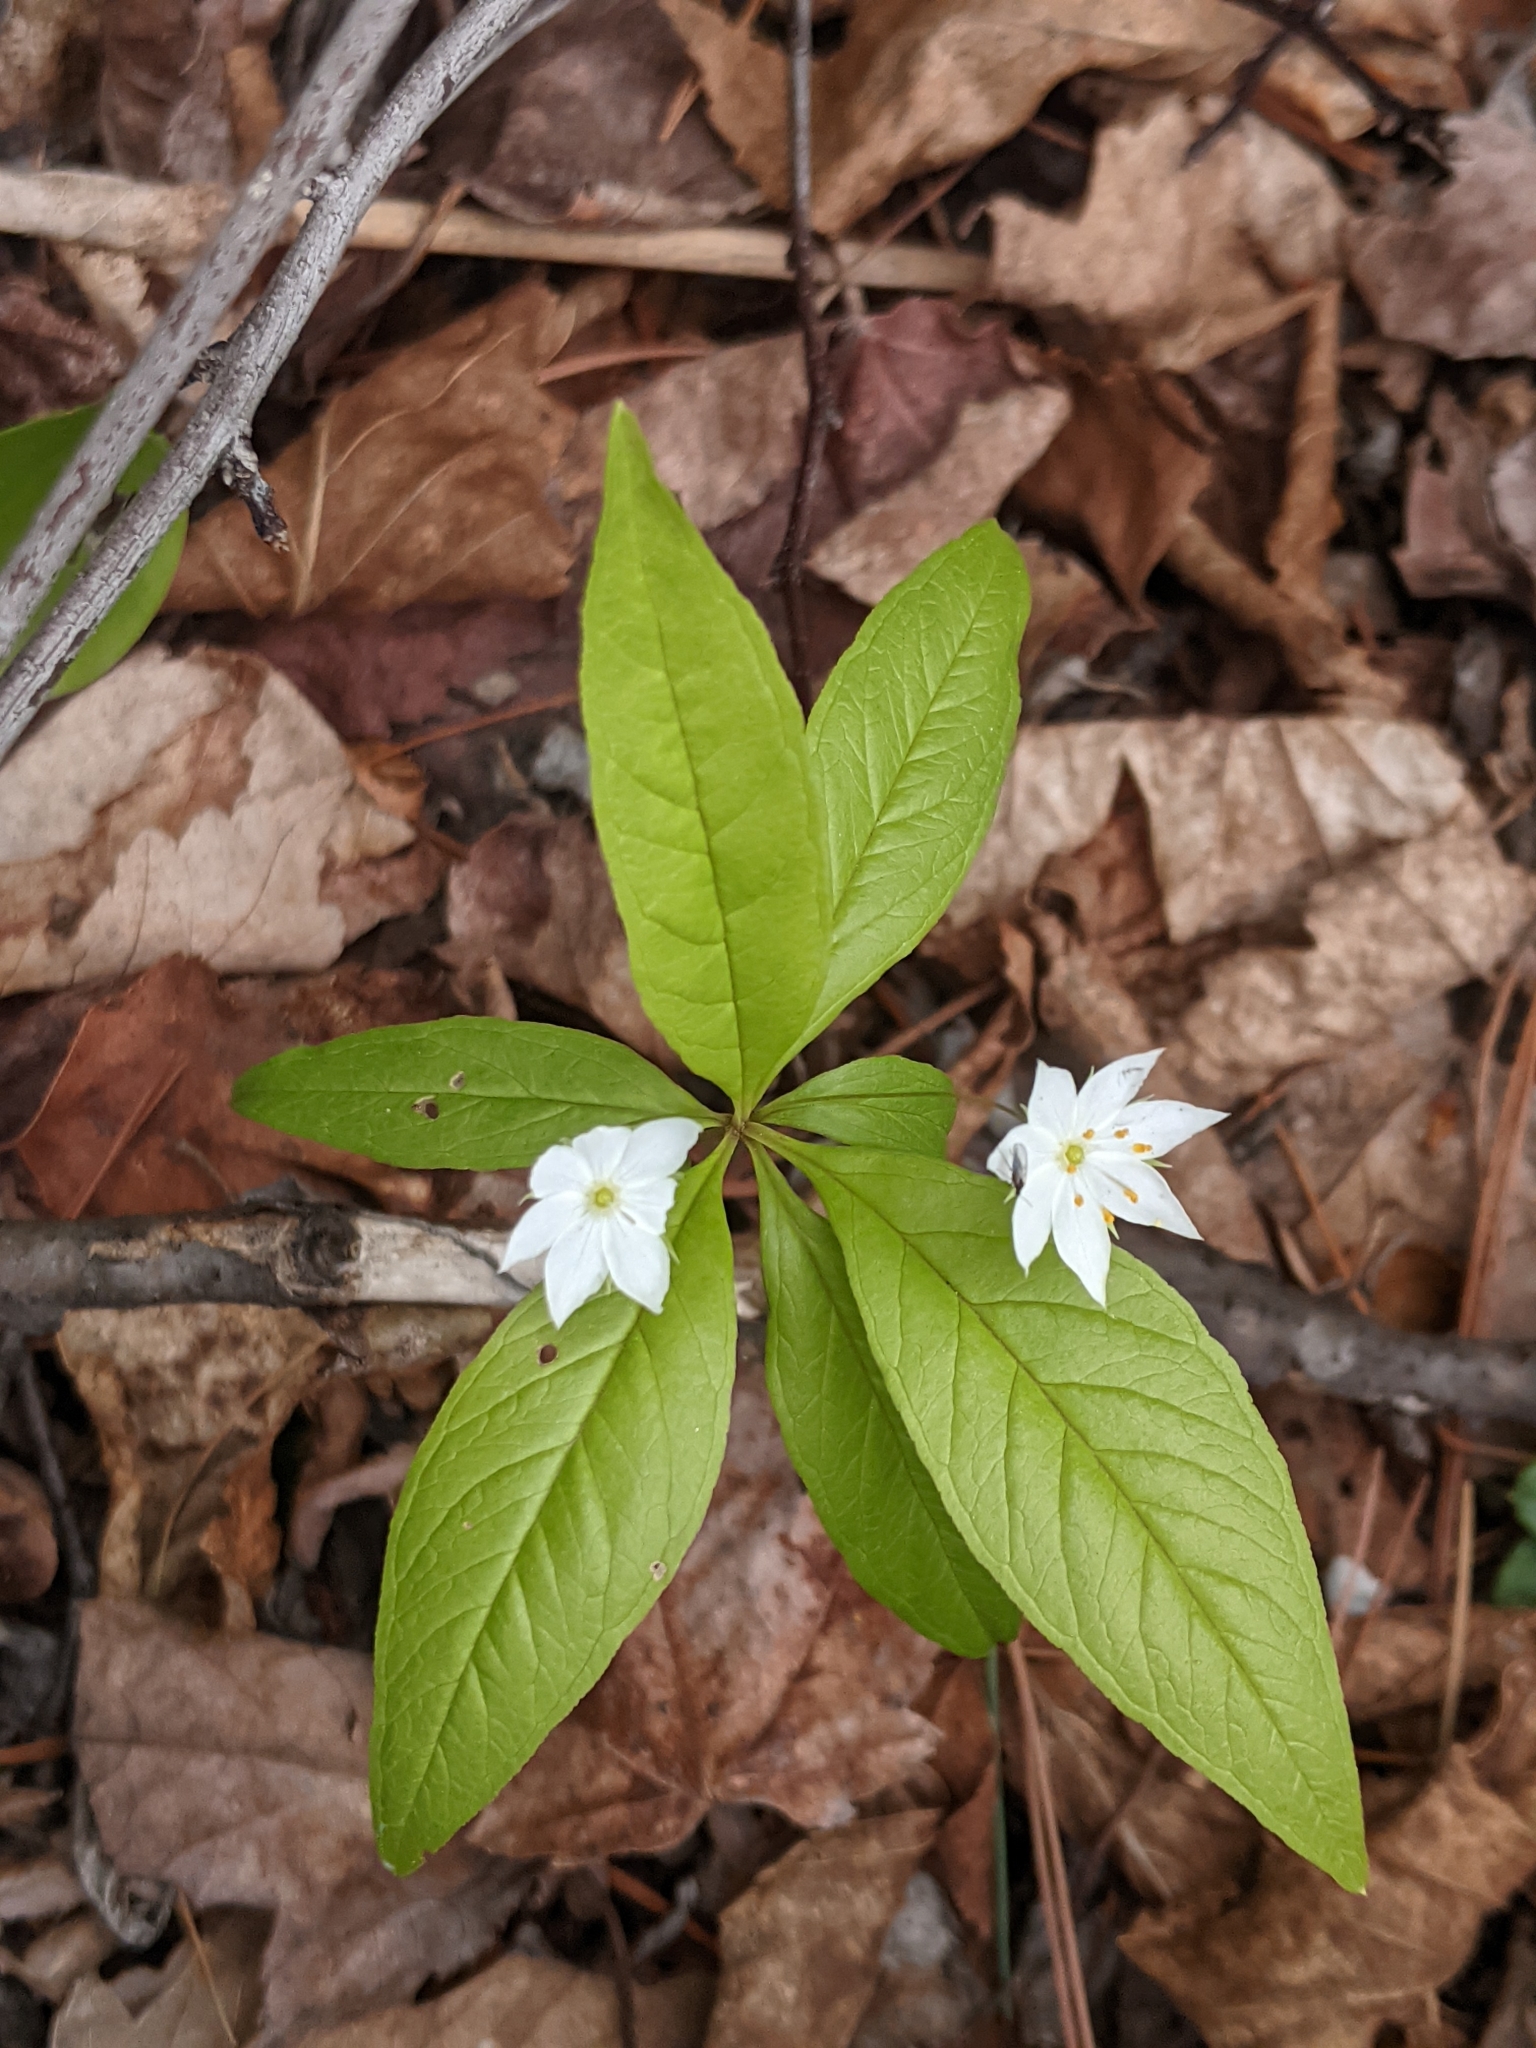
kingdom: Plantae
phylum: Tracheophyta
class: Magnoliopsida
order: Ericales
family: Primulaceae
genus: Lysimachia
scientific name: Lysimachia borealis
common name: American starflower
